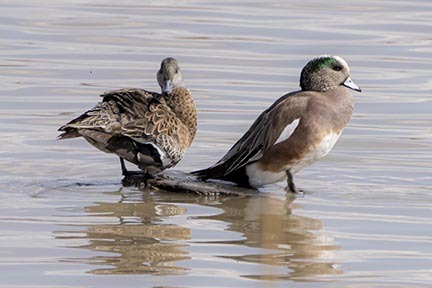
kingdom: Animalia
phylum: Chordata
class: Aves
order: Anseriformes
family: Anatidae
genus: Mareca
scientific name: Mareca americana
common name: American wigeon
